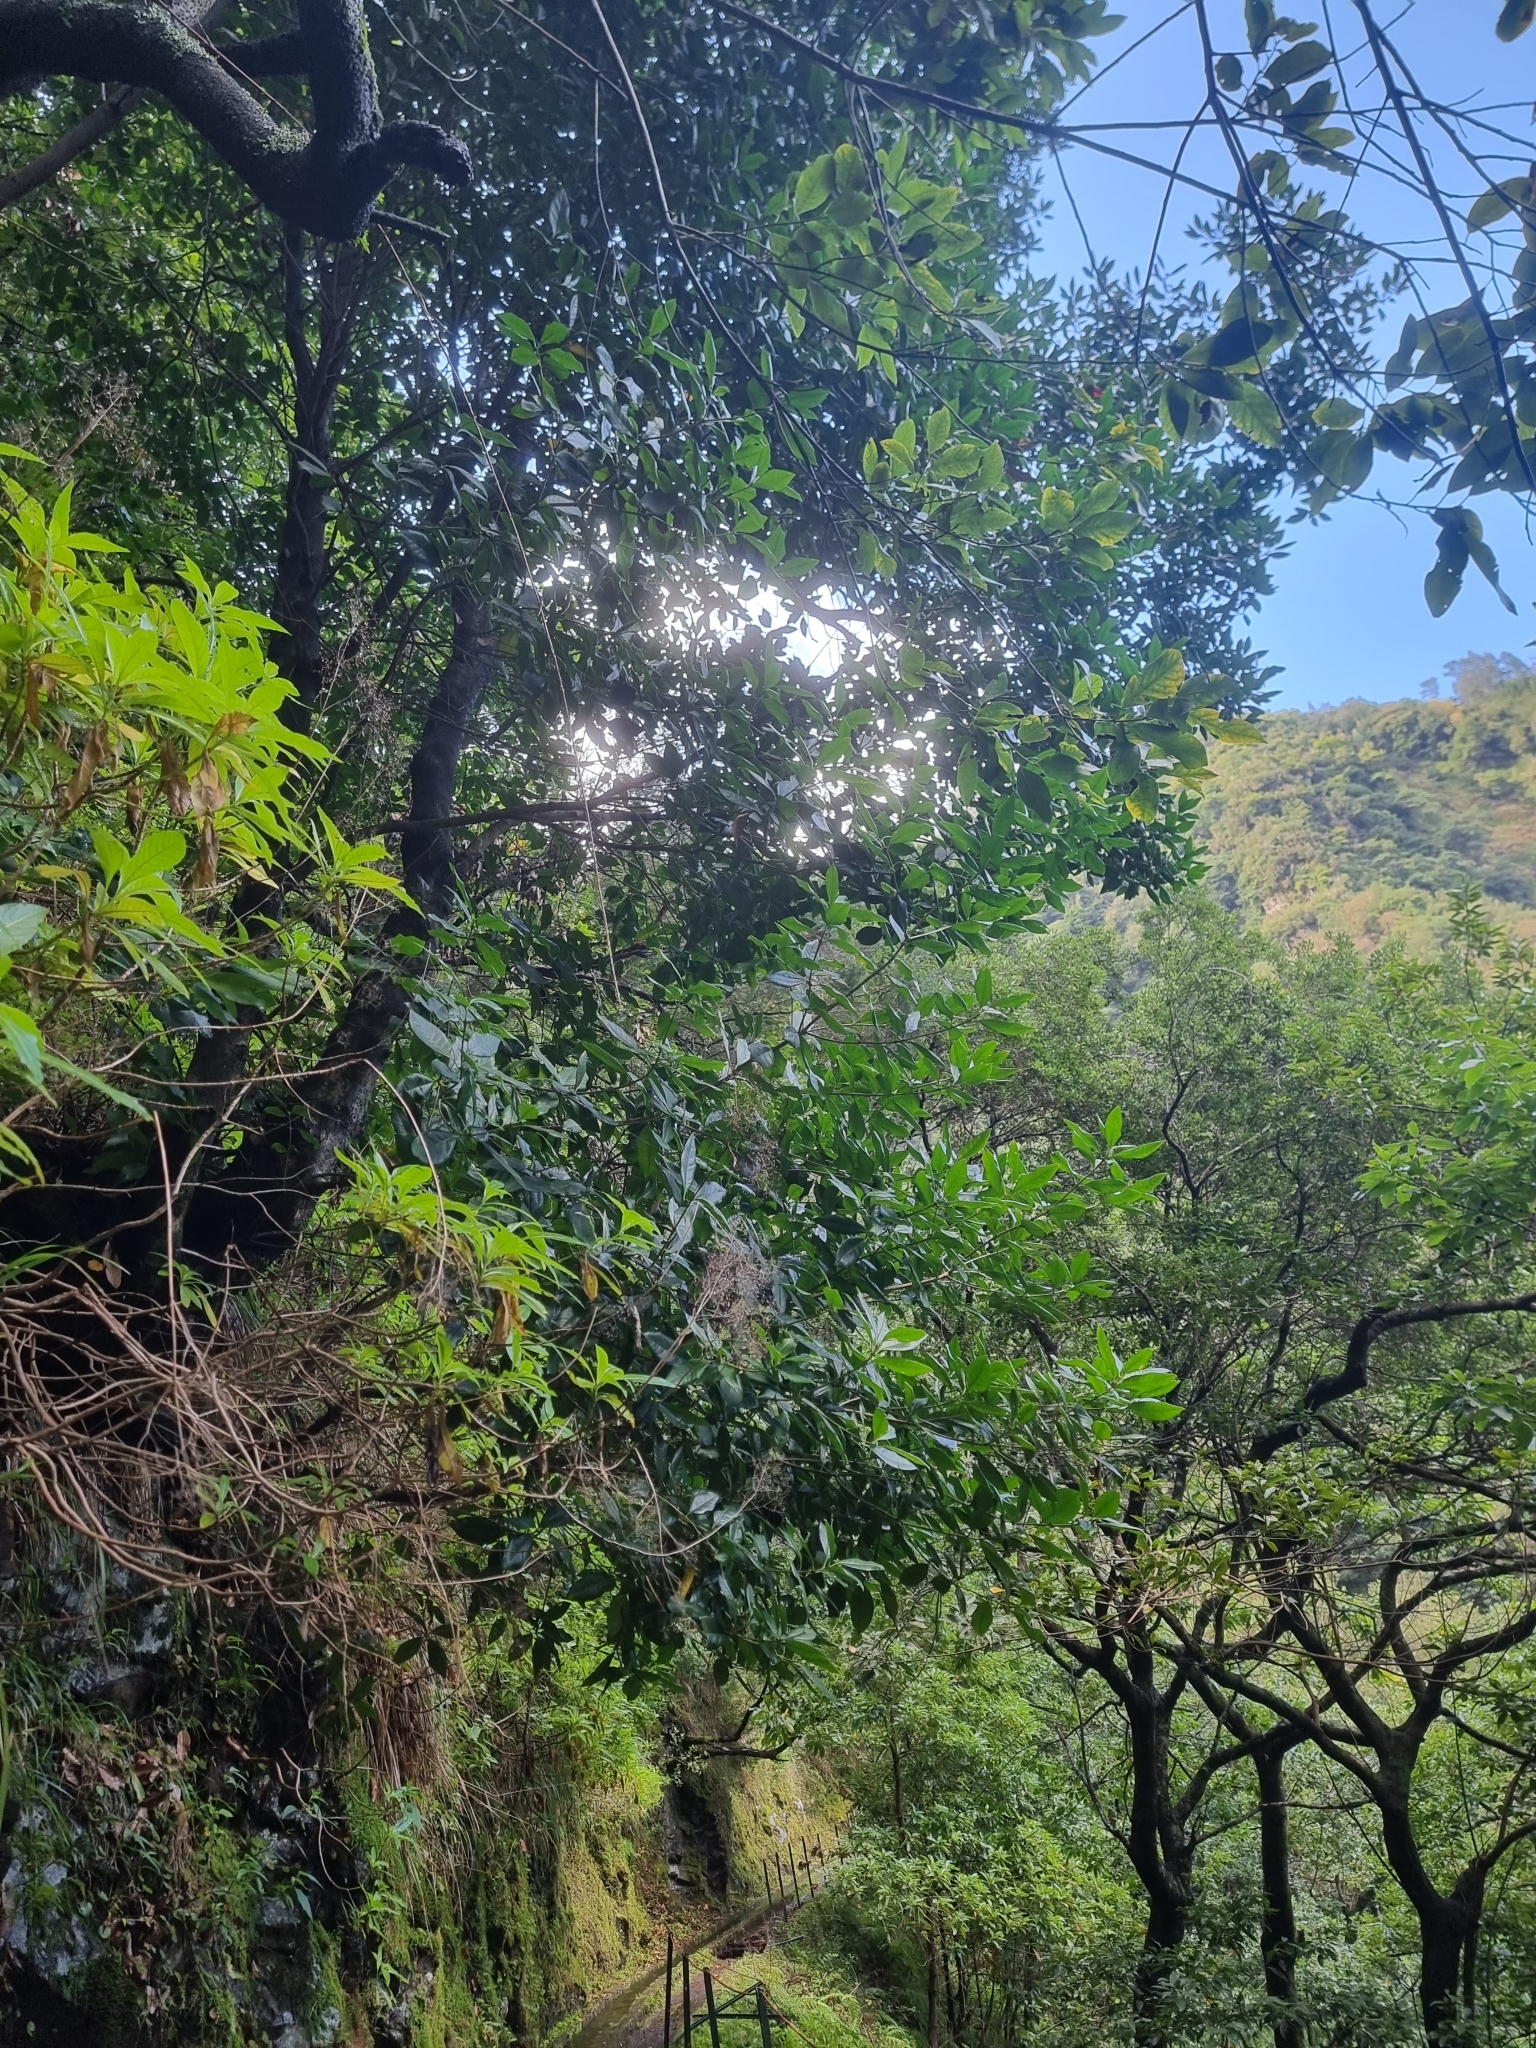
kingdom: Plantae
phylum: Tracheophyta
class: Magnoliopsida
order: Lamiales
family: Oleaceae
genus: Picconia
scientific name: Picconia excelsa
